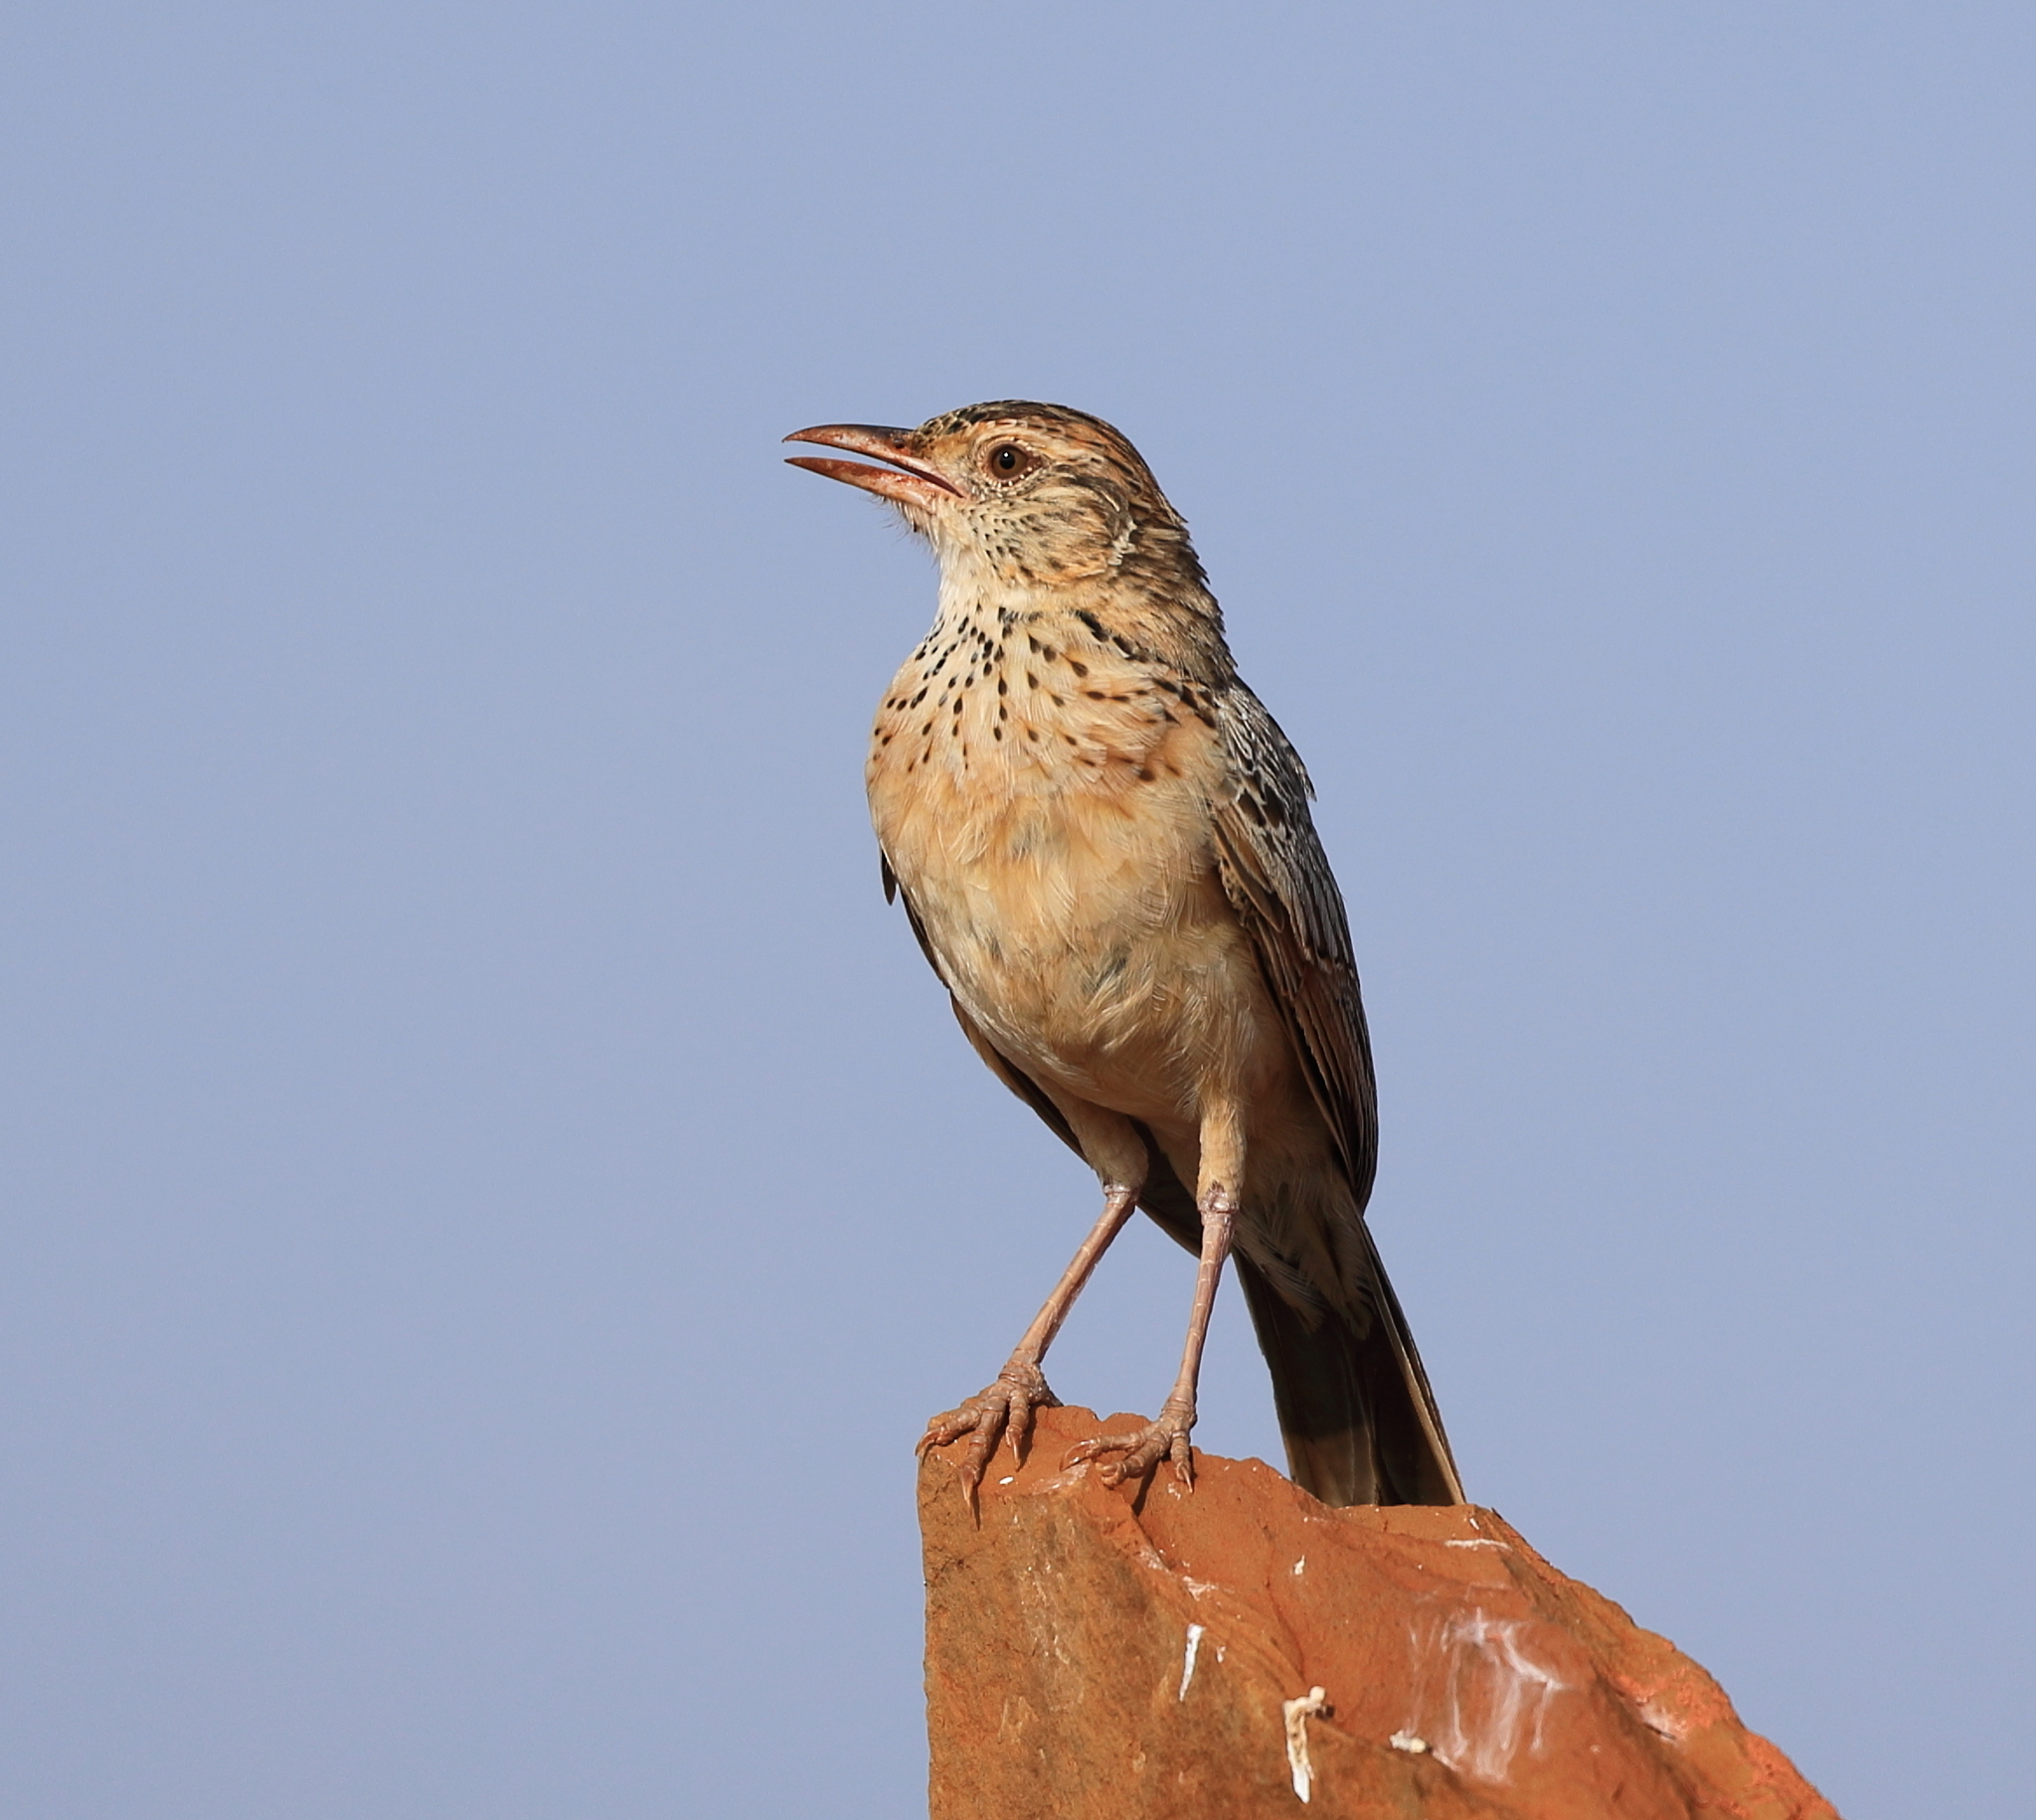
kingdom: Animalia
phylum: Chordata
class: Aves
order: Passeriformes
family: Alaudidae
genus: Mirafra
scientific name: Mirafra hypermetra
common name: Red-winged lark
